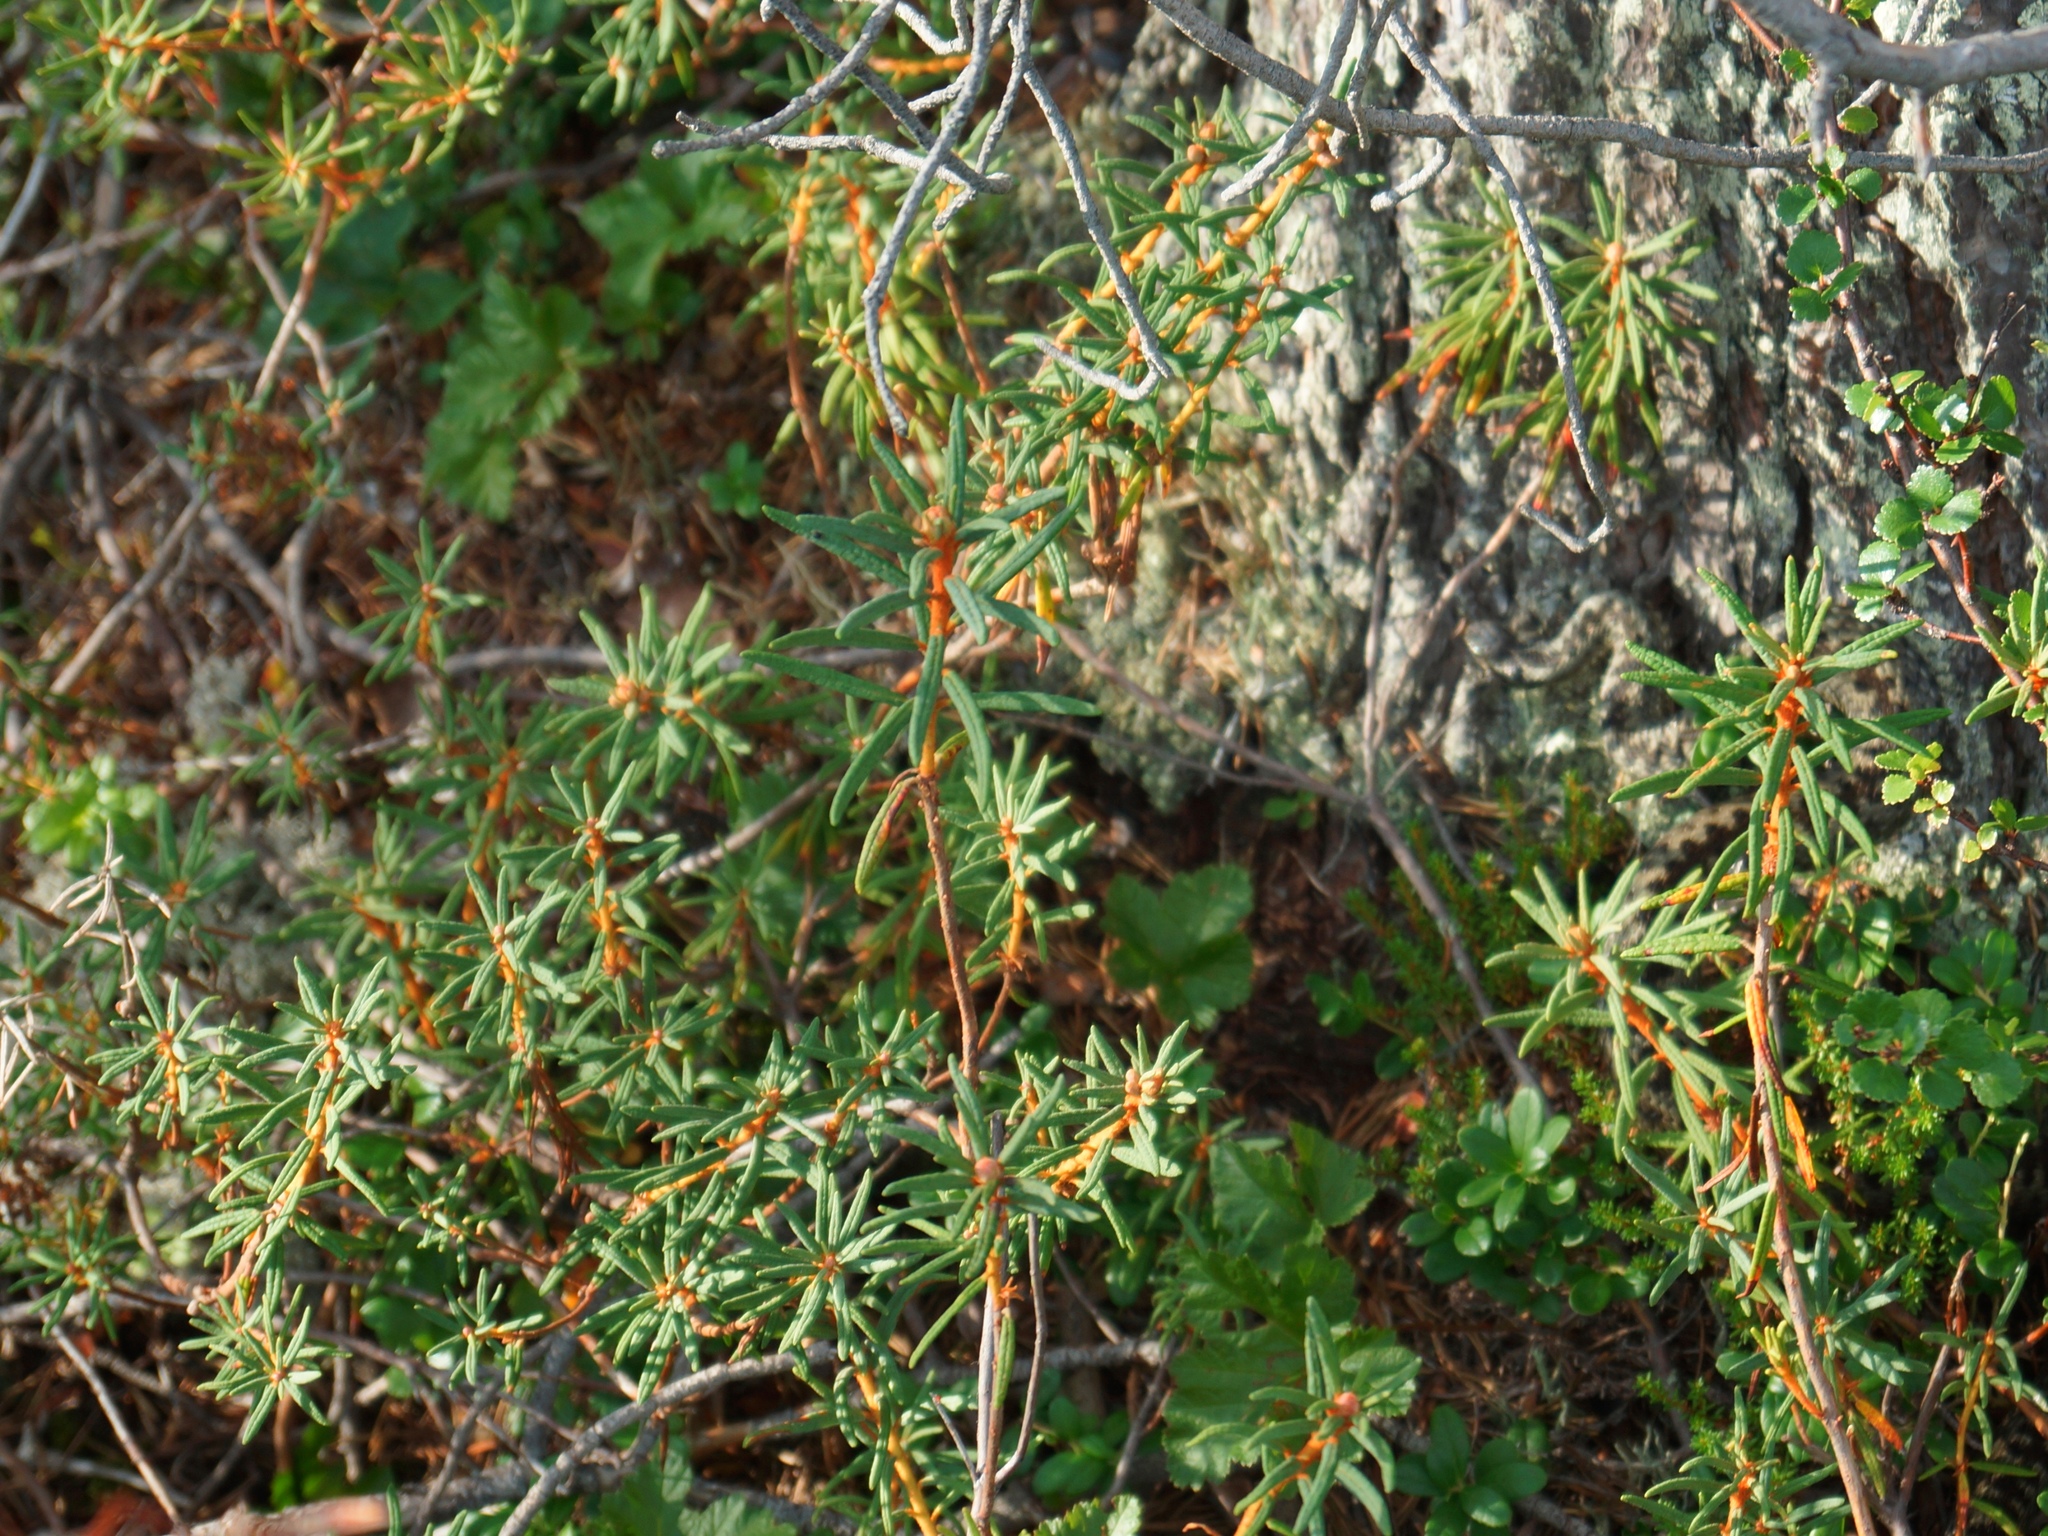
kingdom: Plantae
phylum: Tracheophyta
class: Magnoliopsida
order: Ericales
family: Ericaceae
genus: Rhododendron
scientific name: Rhododendron tomentosum
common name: Marsh labrador tea
